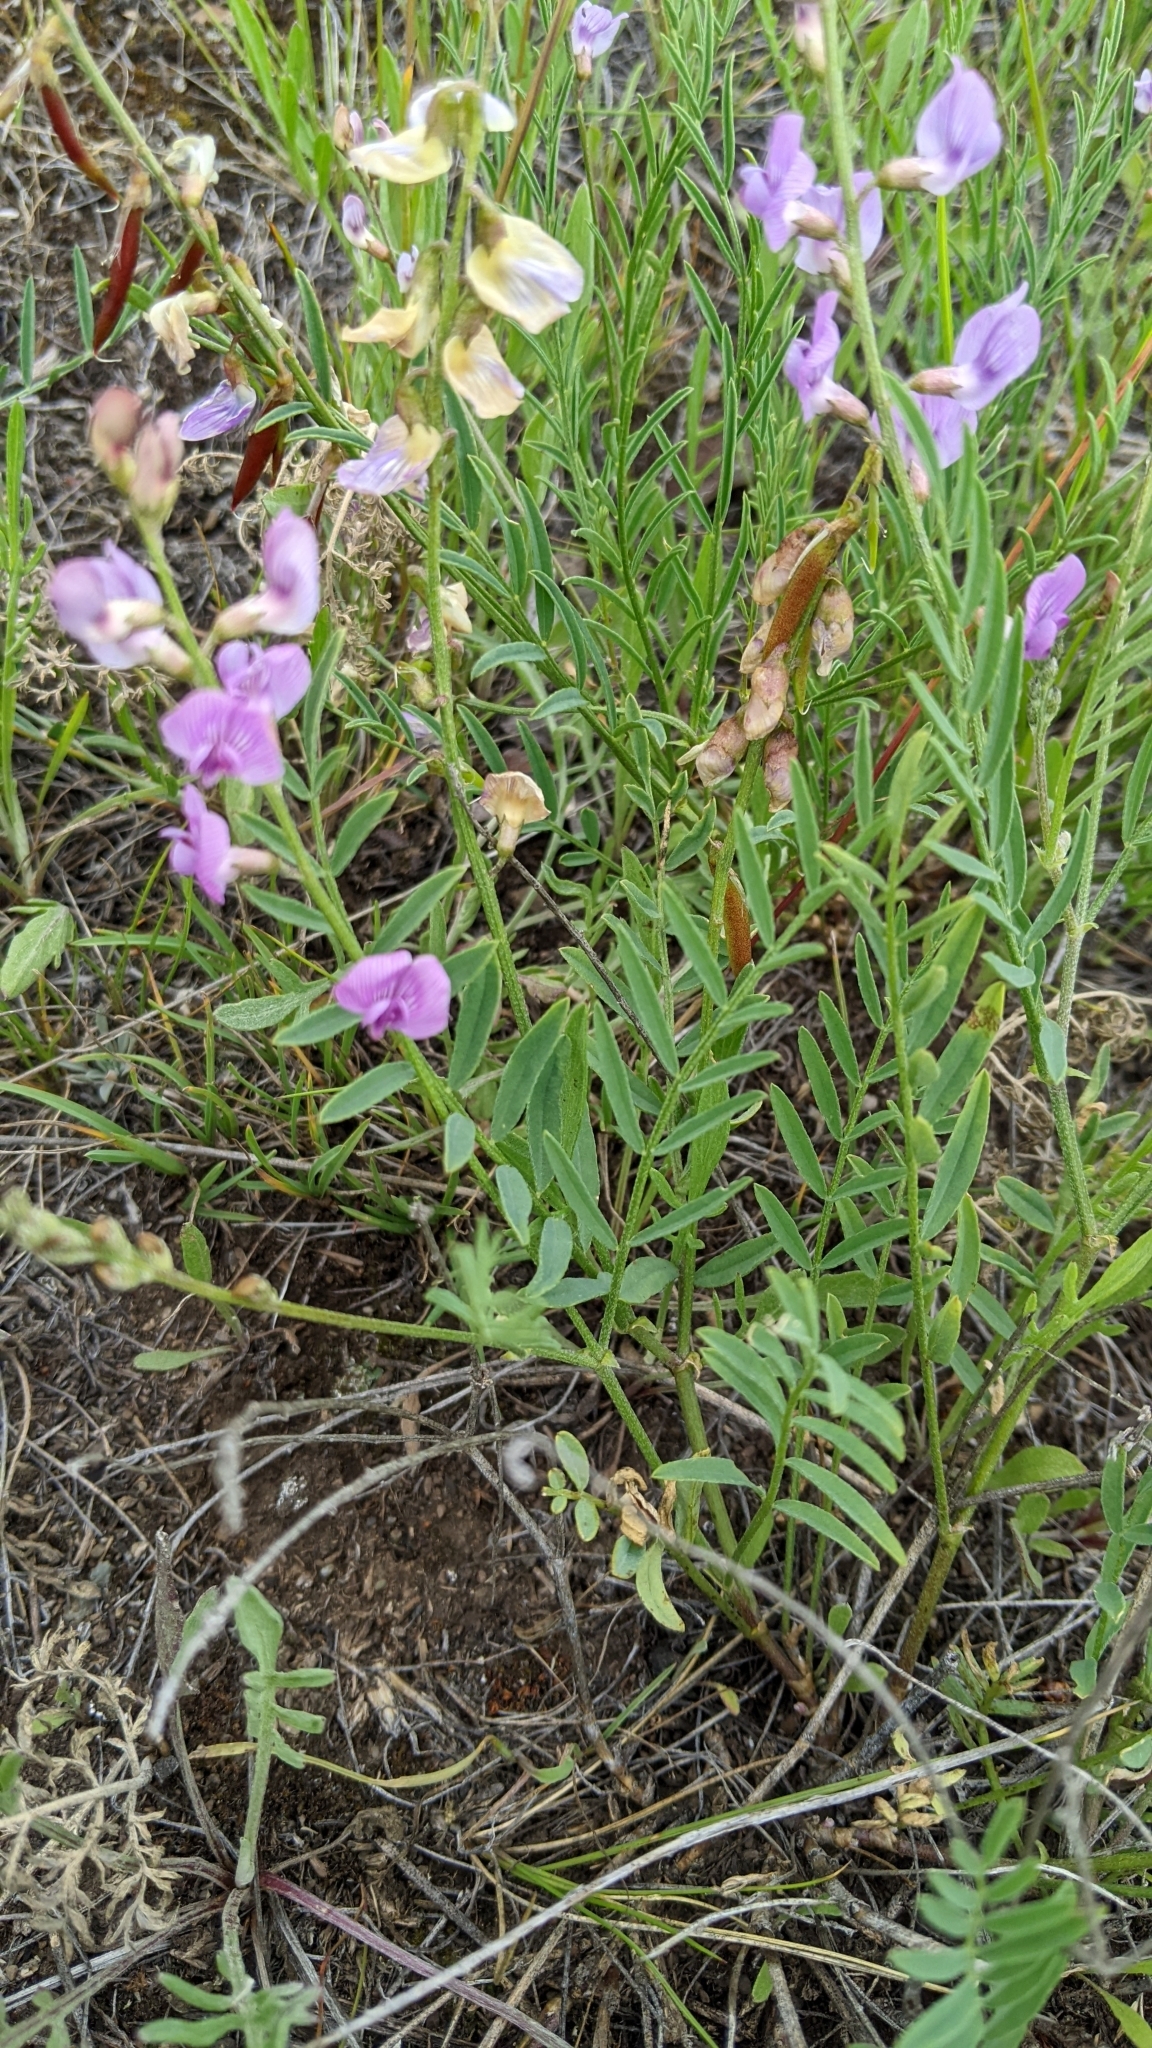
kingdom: Plantae
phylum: Tracheophyta
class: Magnoliopsida
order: Fabales
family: Fabaceae
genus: Astragalus
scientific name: Astragalus miser
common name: Timber milkvetch
